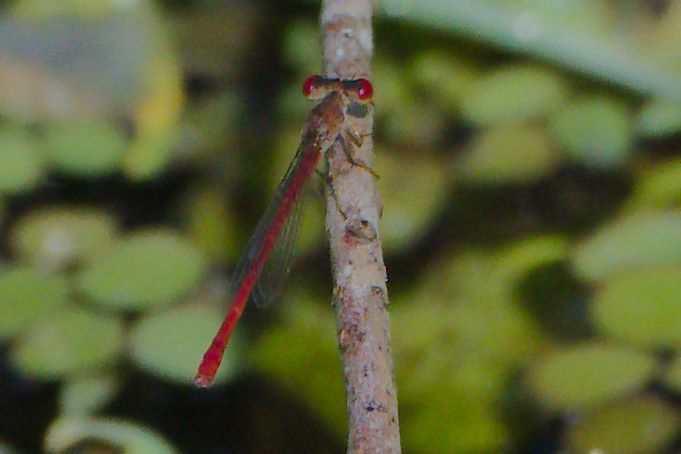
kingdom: Animalia
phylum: Arthropoda
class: Insecta
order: Odonata
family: Coenagrionidae
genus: Telebasis
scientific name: Telebasis byersi
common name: Duckweed firetail
